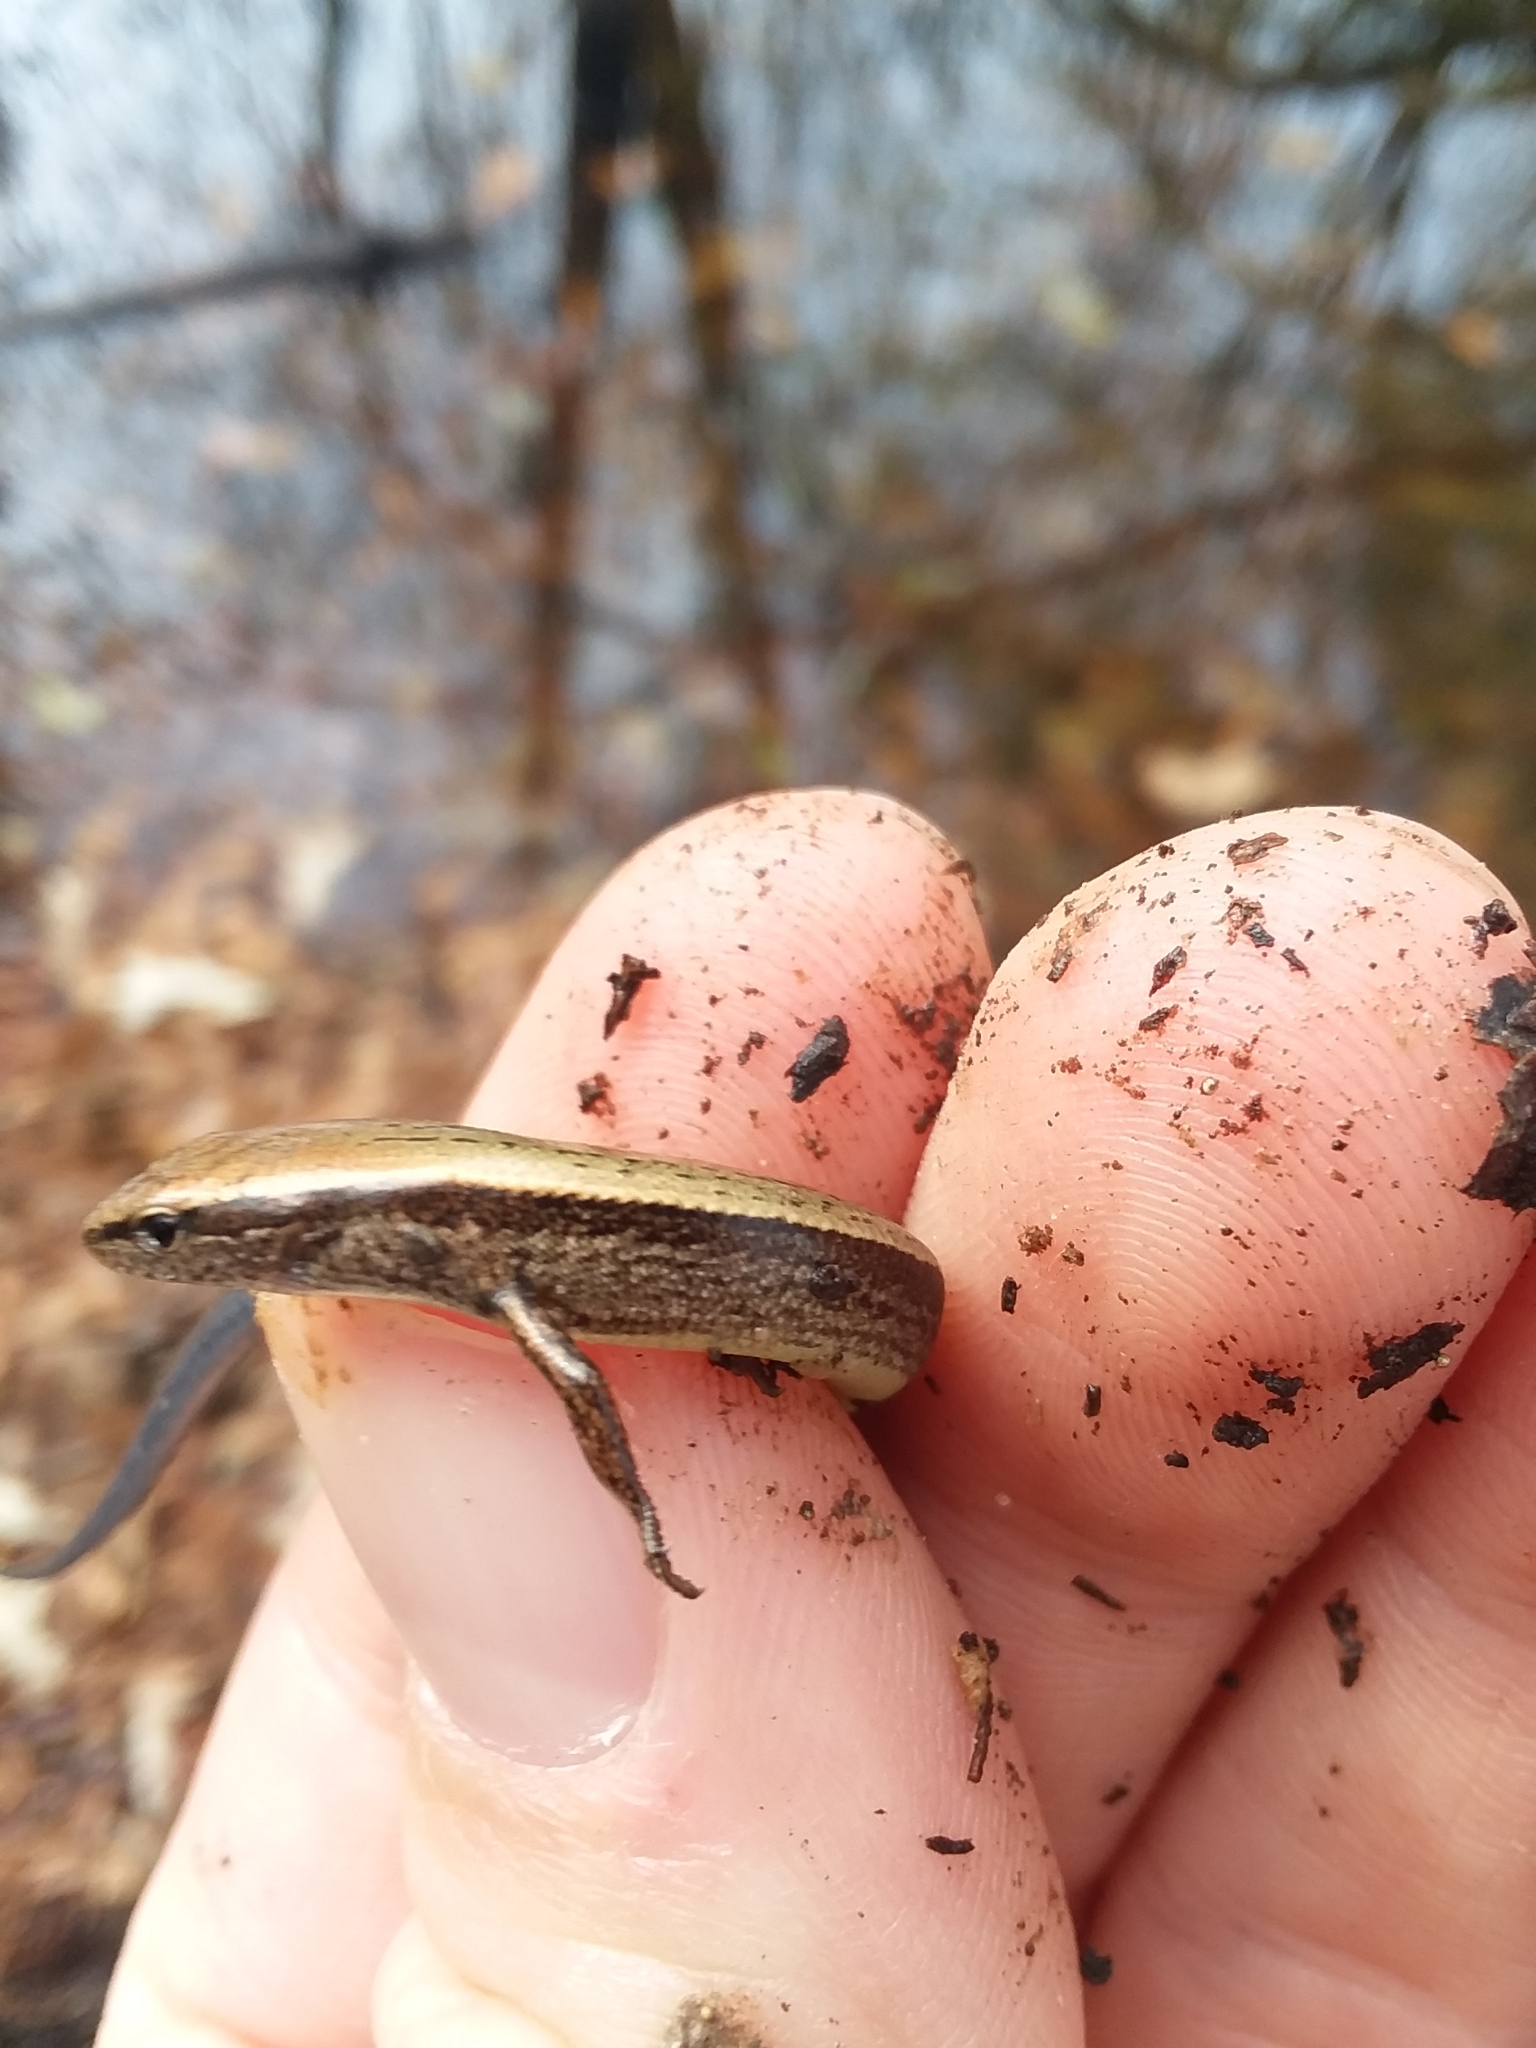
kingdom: Animalia
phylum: Chordata
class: Squamata
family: Scincidae
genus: Scincella
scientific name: Scincella lateralis
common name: Ground skink
